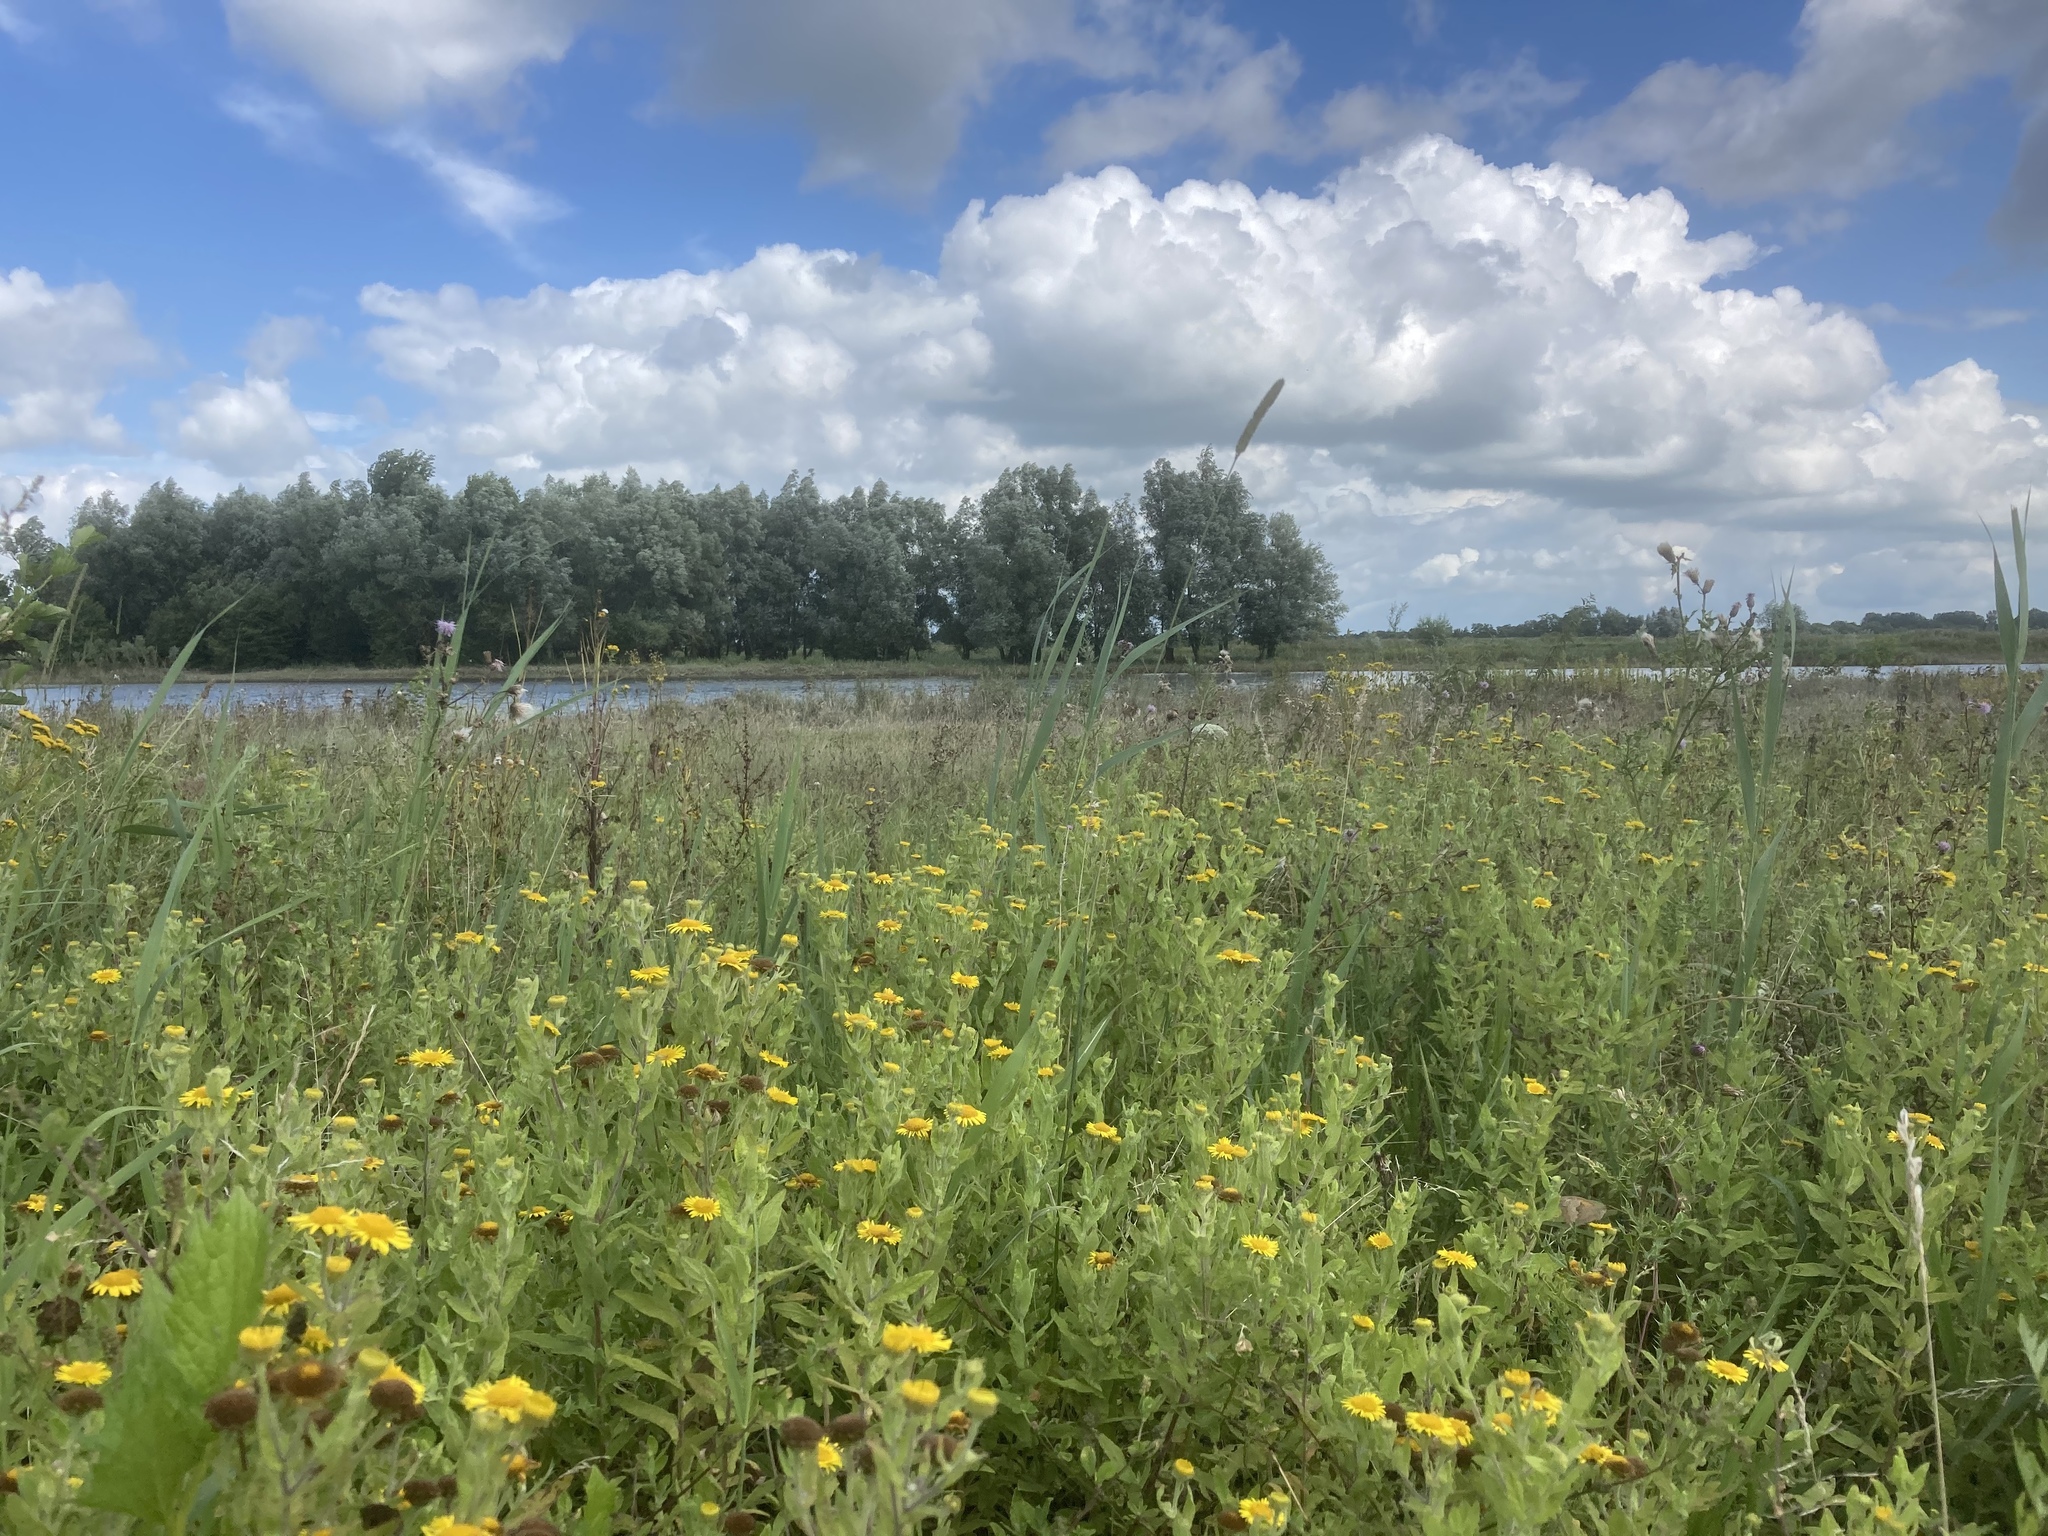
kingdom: Plantae
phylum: Tracheophyta
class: Magnoliopsida
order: Asterales
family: Asteraceae
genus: Pulicaria
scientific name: Pulicaria dysenterica
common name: Common fleabane
